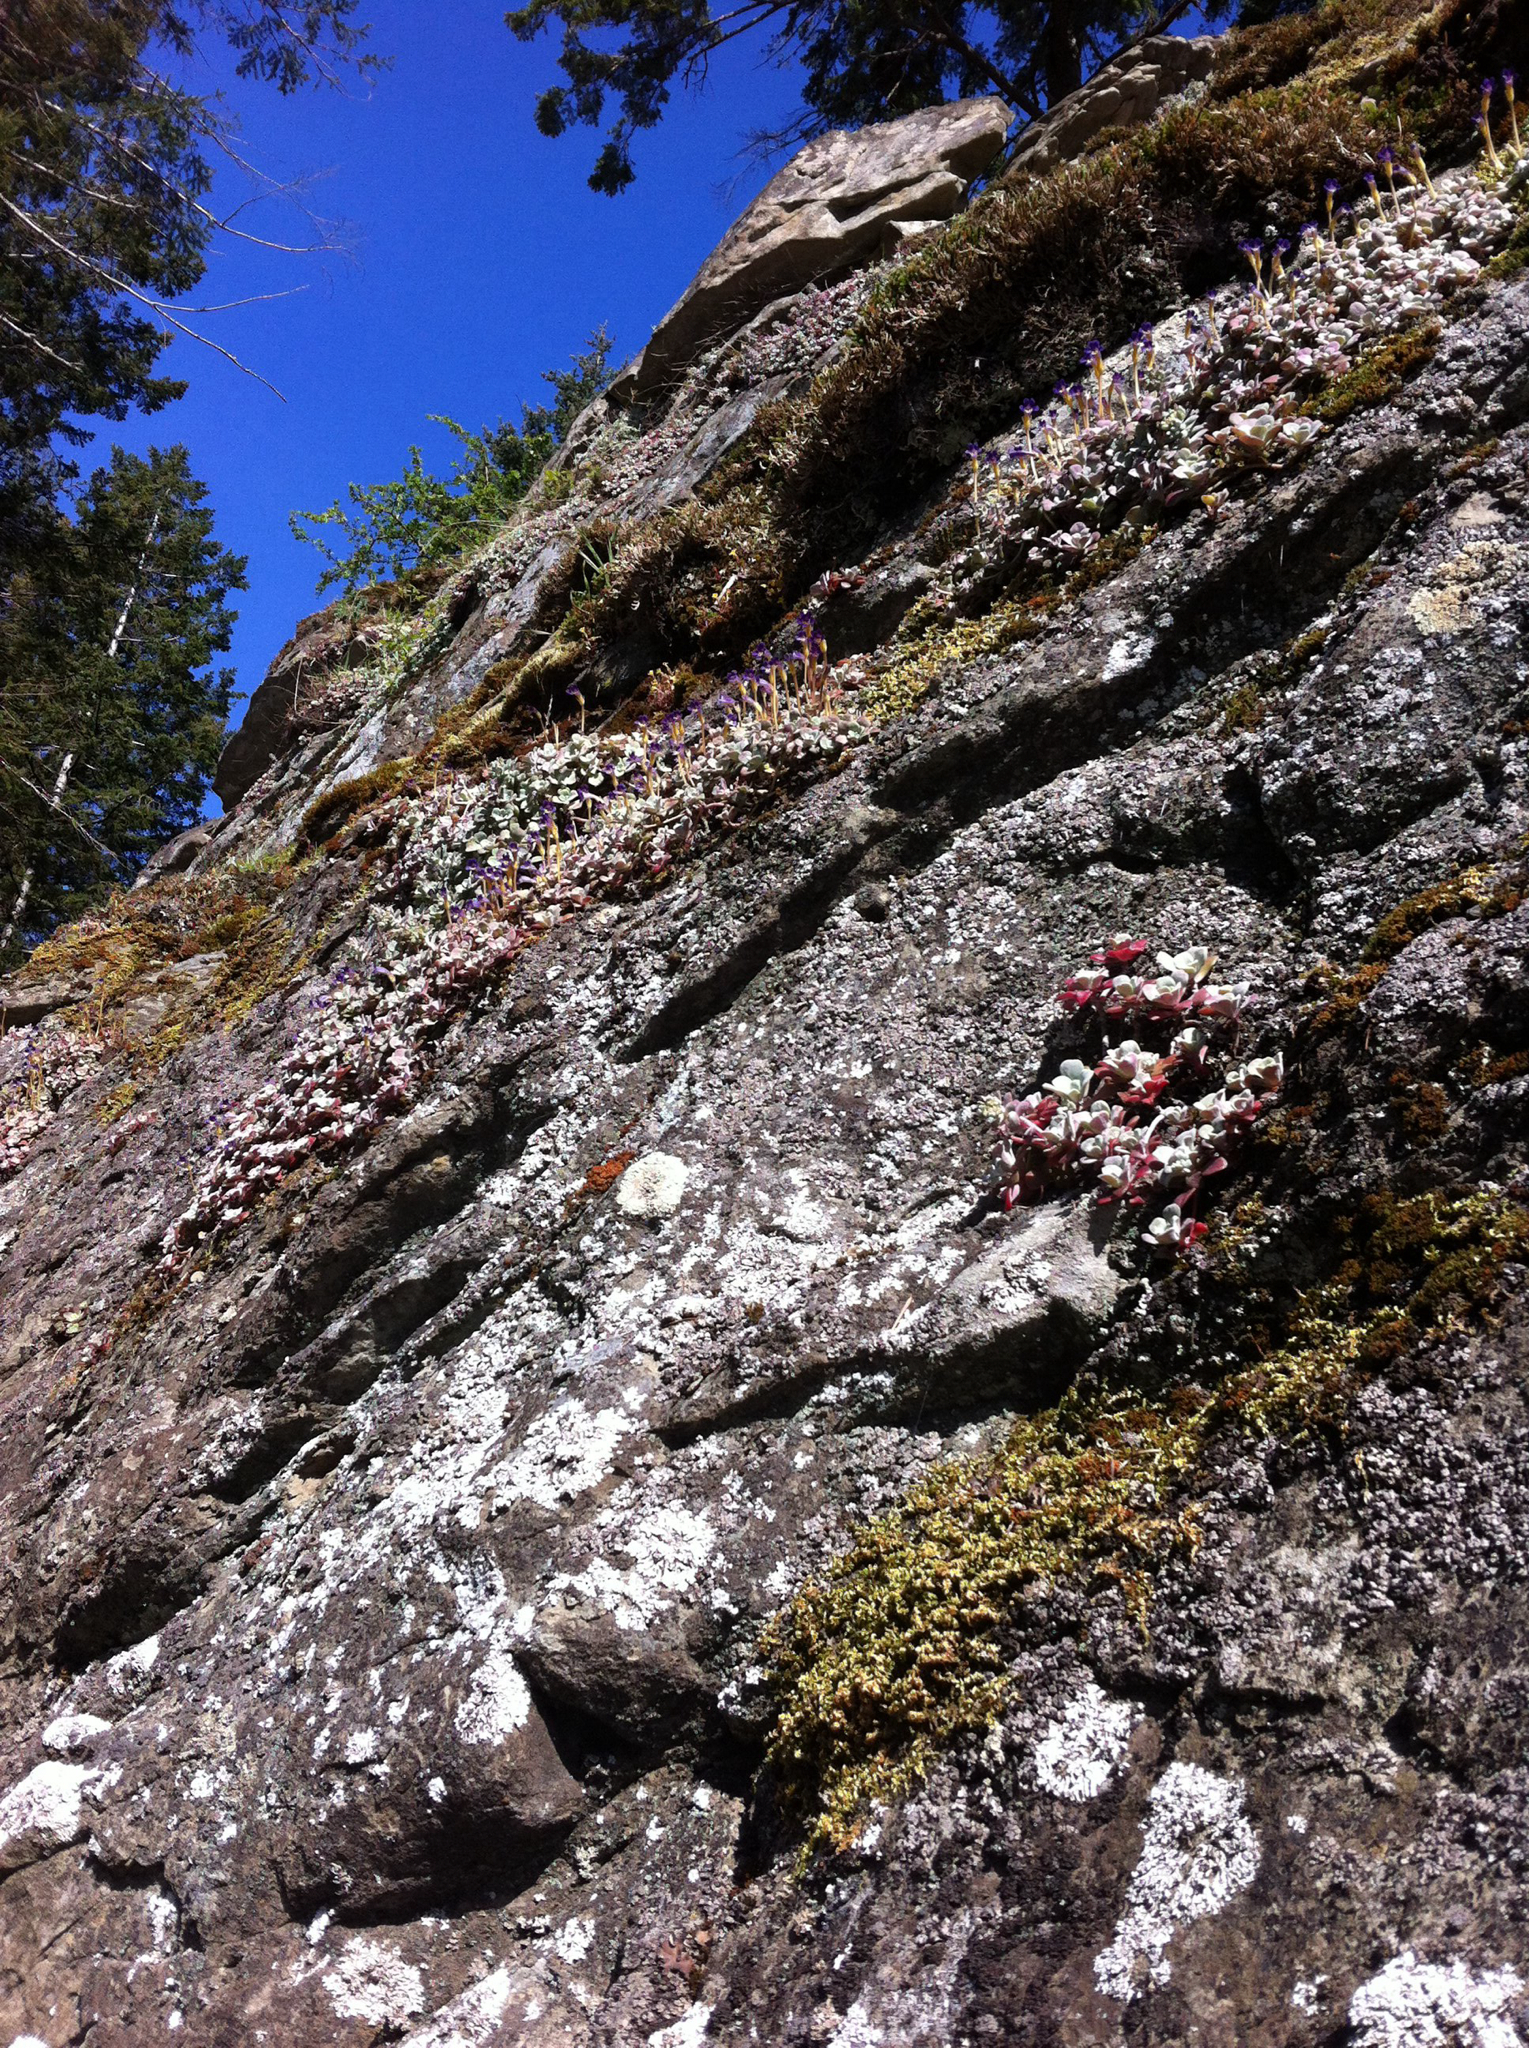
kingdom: Plantae
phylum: Tracheophyta
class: Magnoliopsida
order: Lamiales
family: Orobanchaceae
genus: Aphyllon
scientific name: Aphyllon uniflorum
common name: One-flowered broomrape
